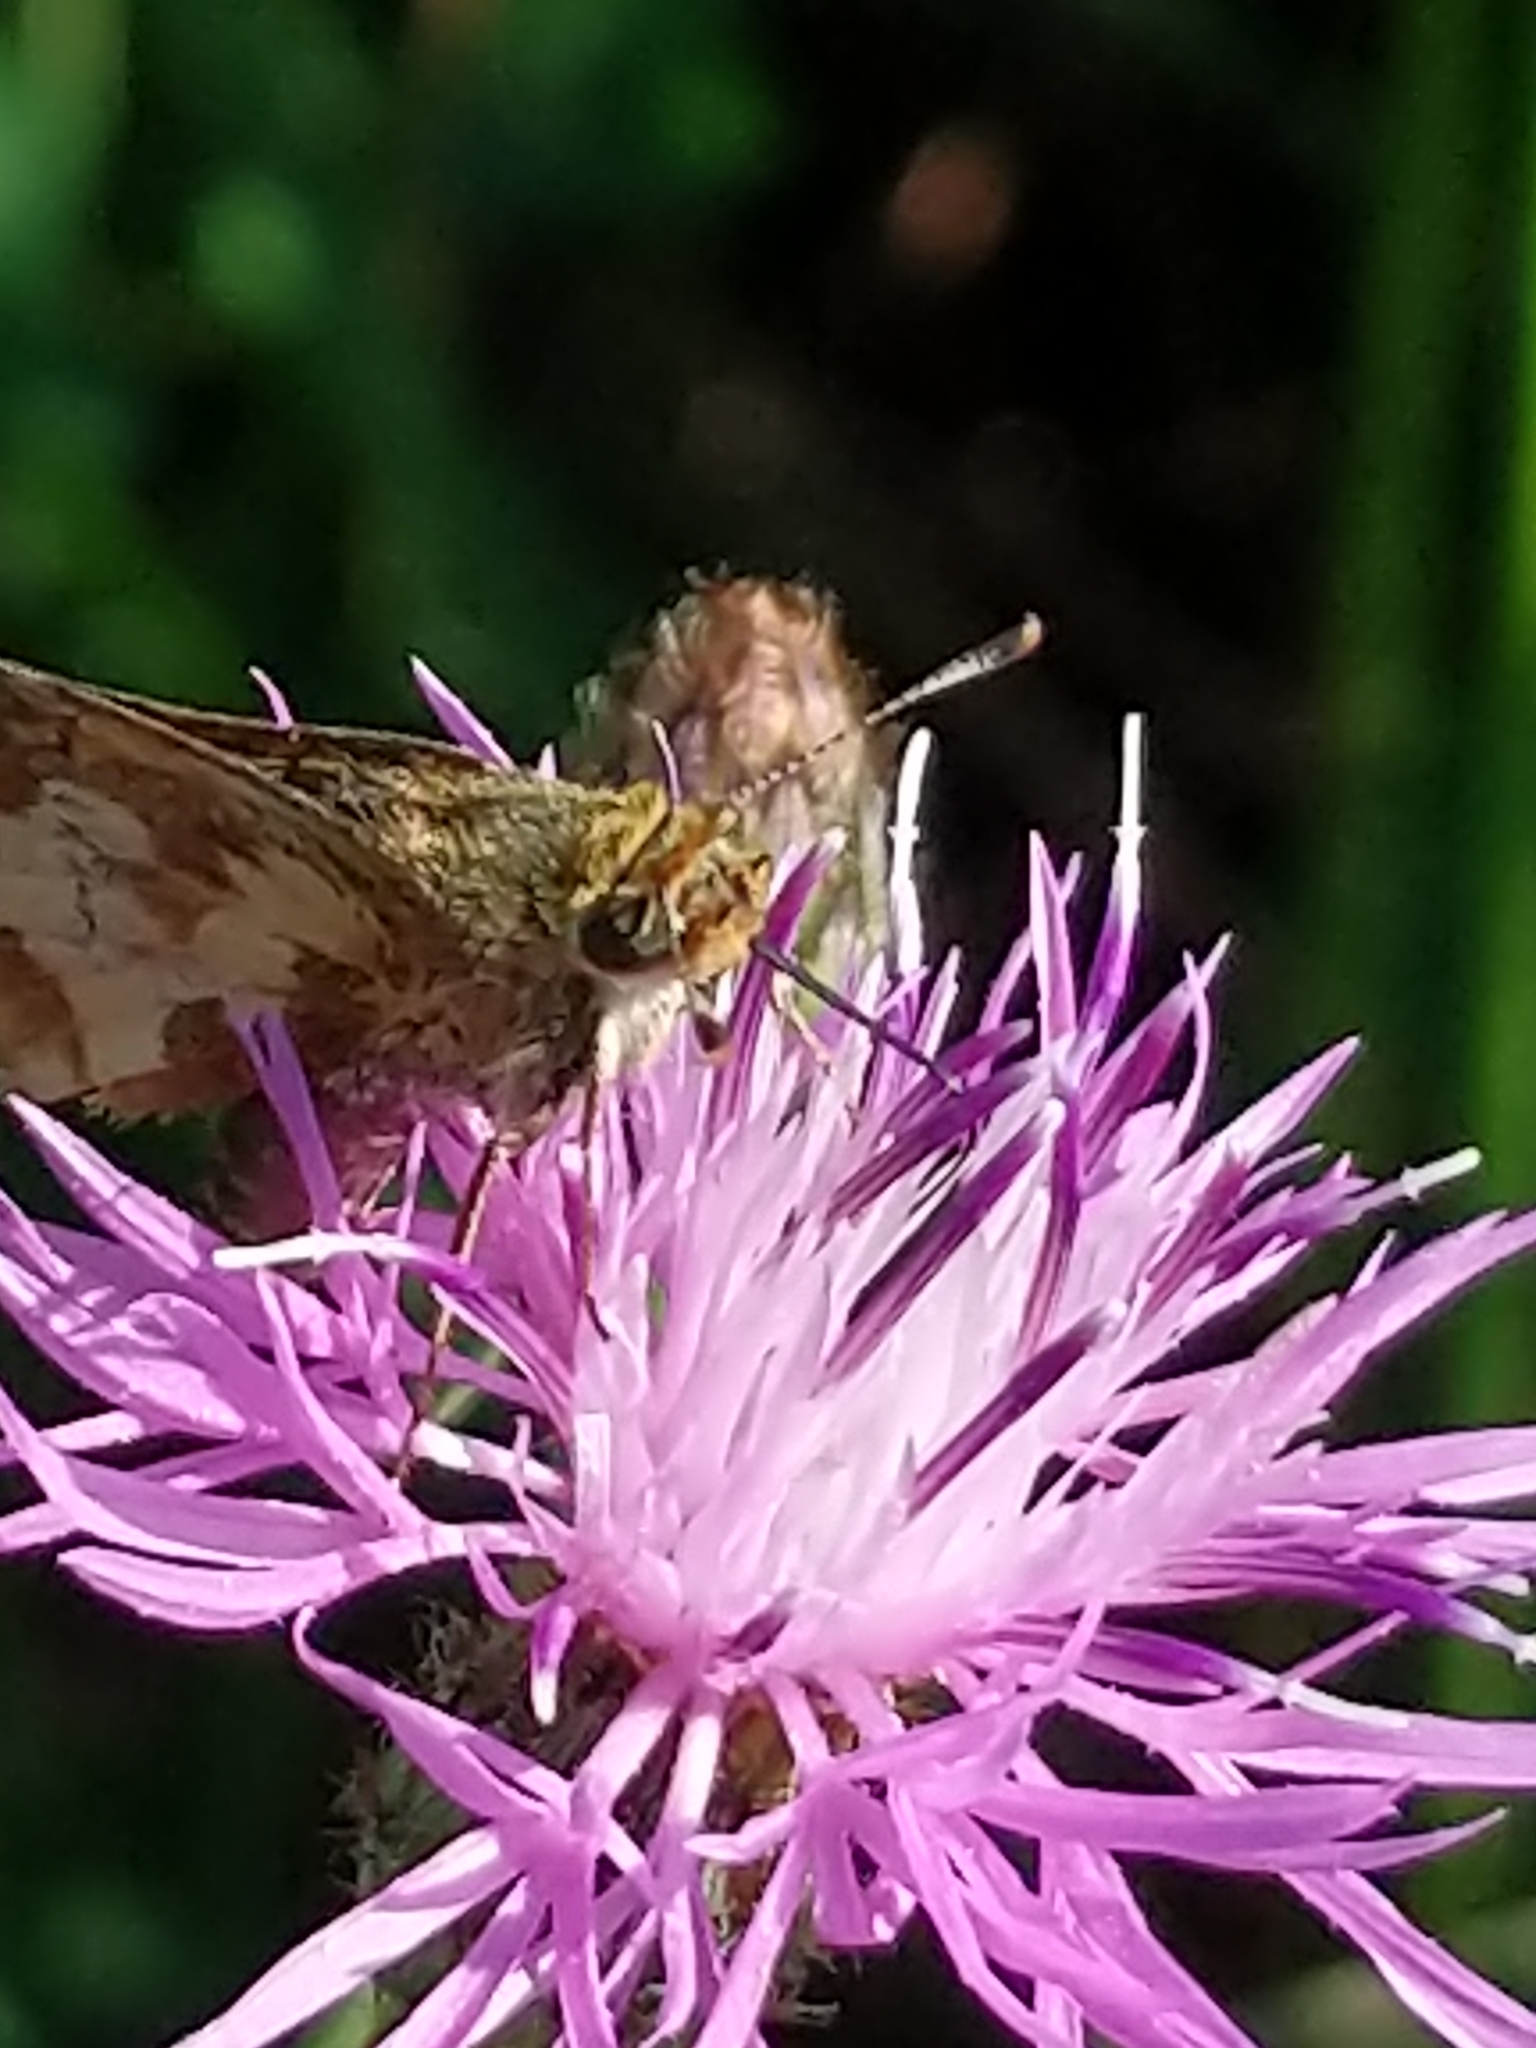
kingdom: Animalia
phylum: Arthropoda
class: Insecta
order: Lepidoptera
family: Hesperiidae
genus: Polites
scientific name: Polites coras
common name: Peck's skipper
